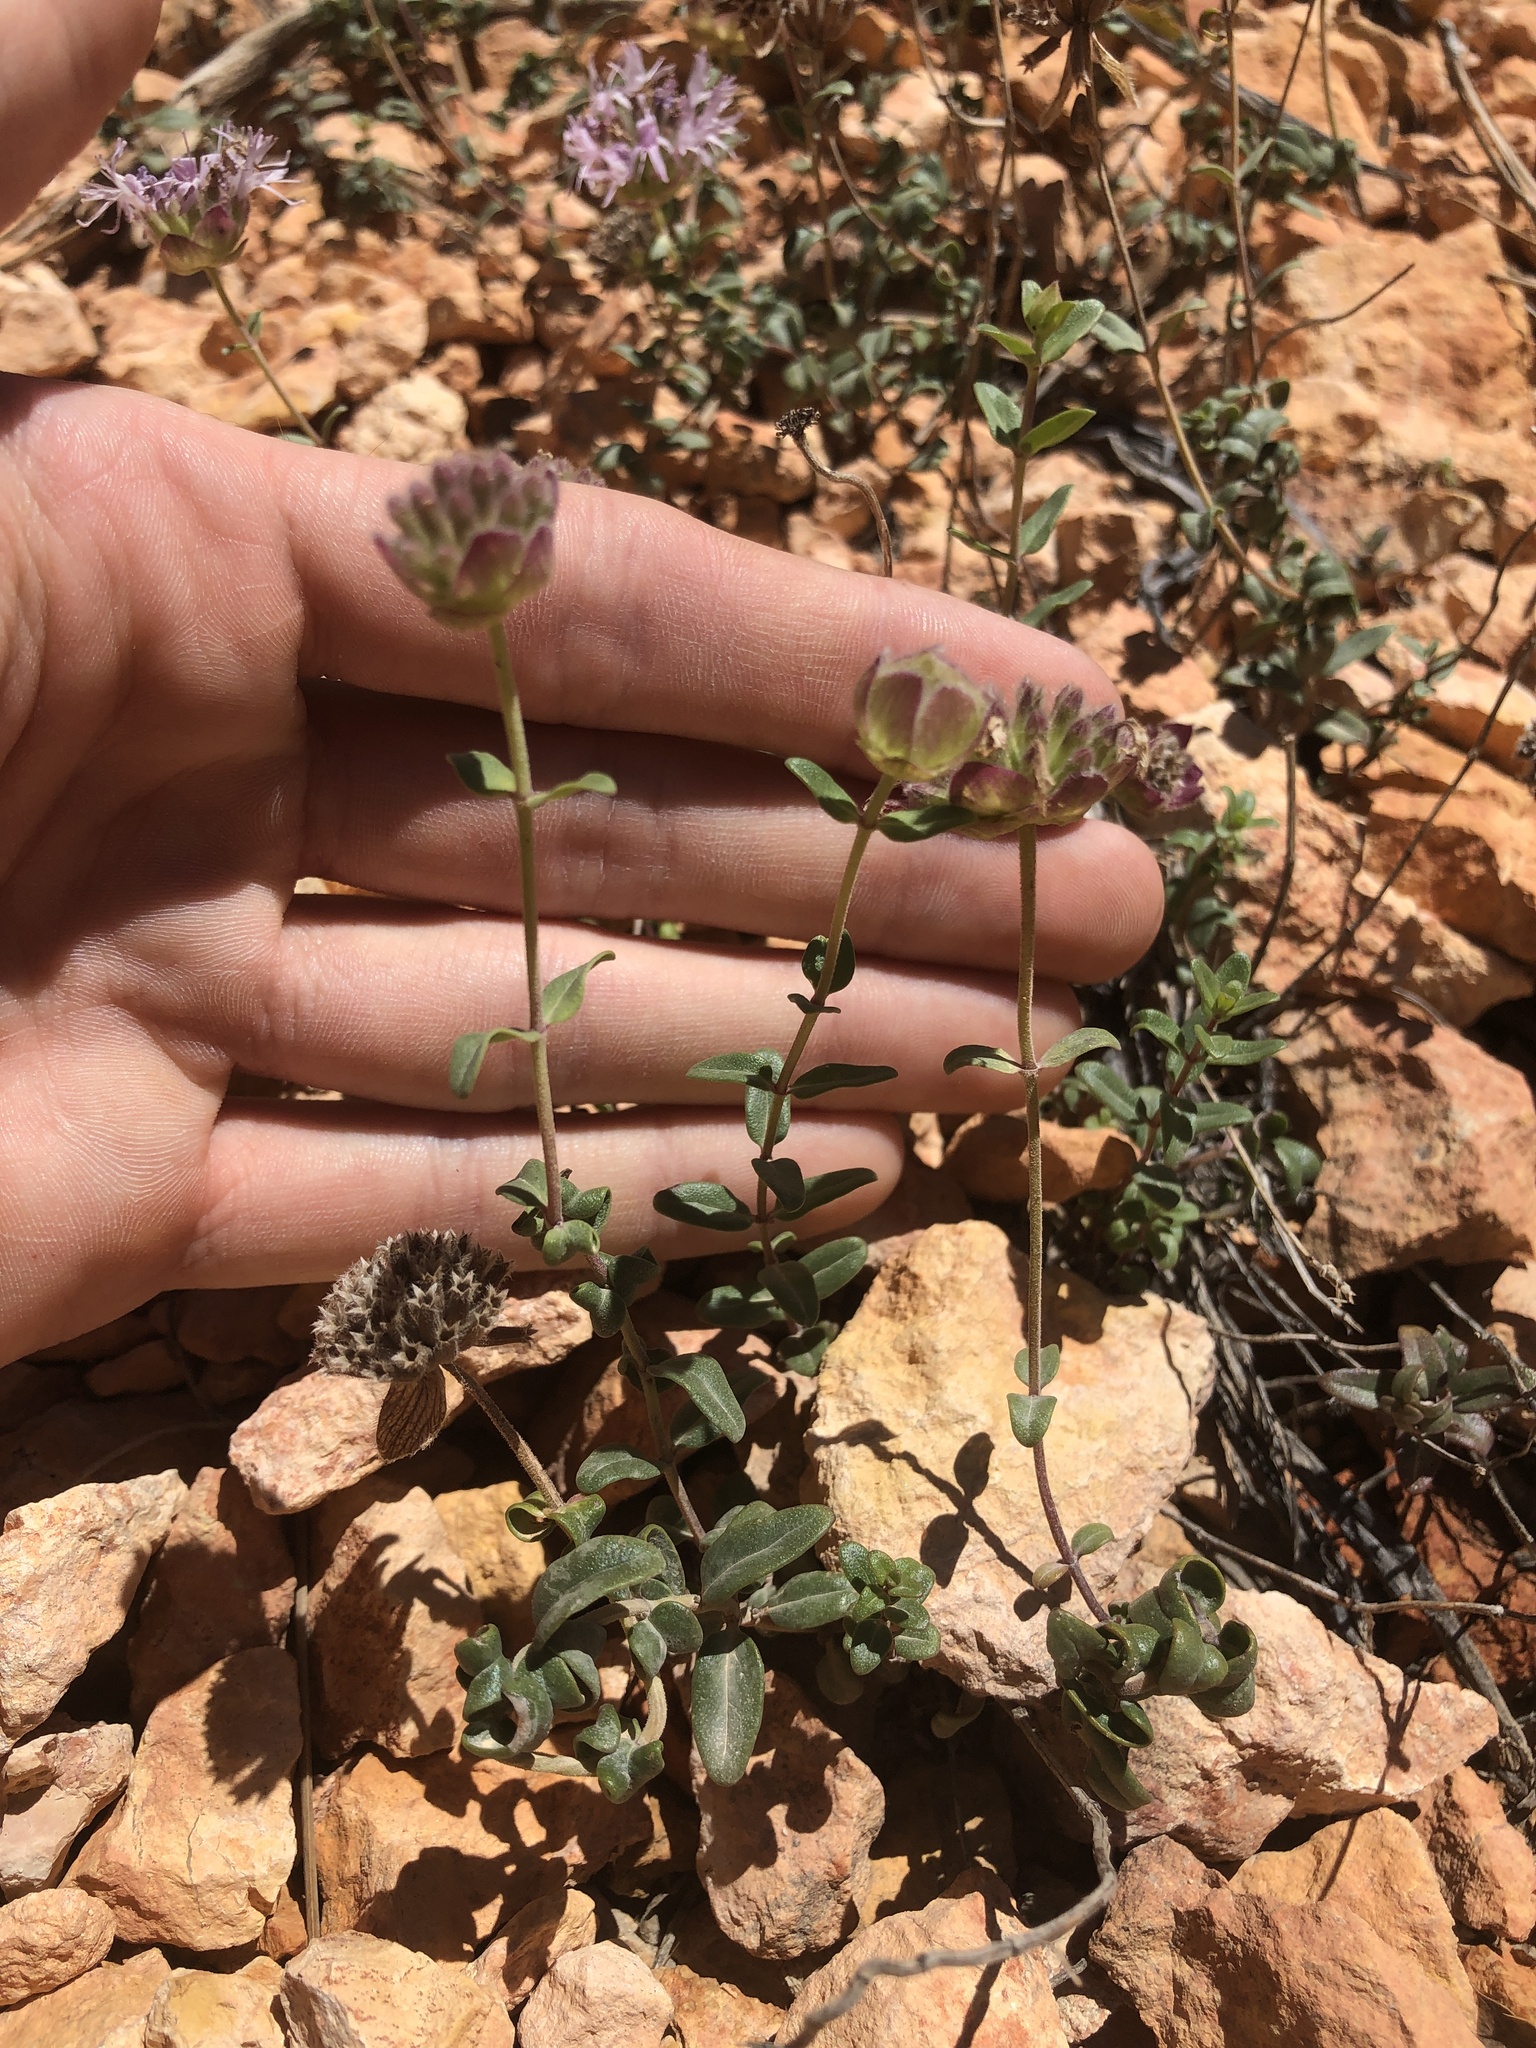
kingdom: Plantae
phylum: Tracheophyta
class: Magnoliopsida
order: Lamiales
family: Lamiaceae
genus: Monardella
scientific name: Monardella odoratissima
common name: Pacific monardella
